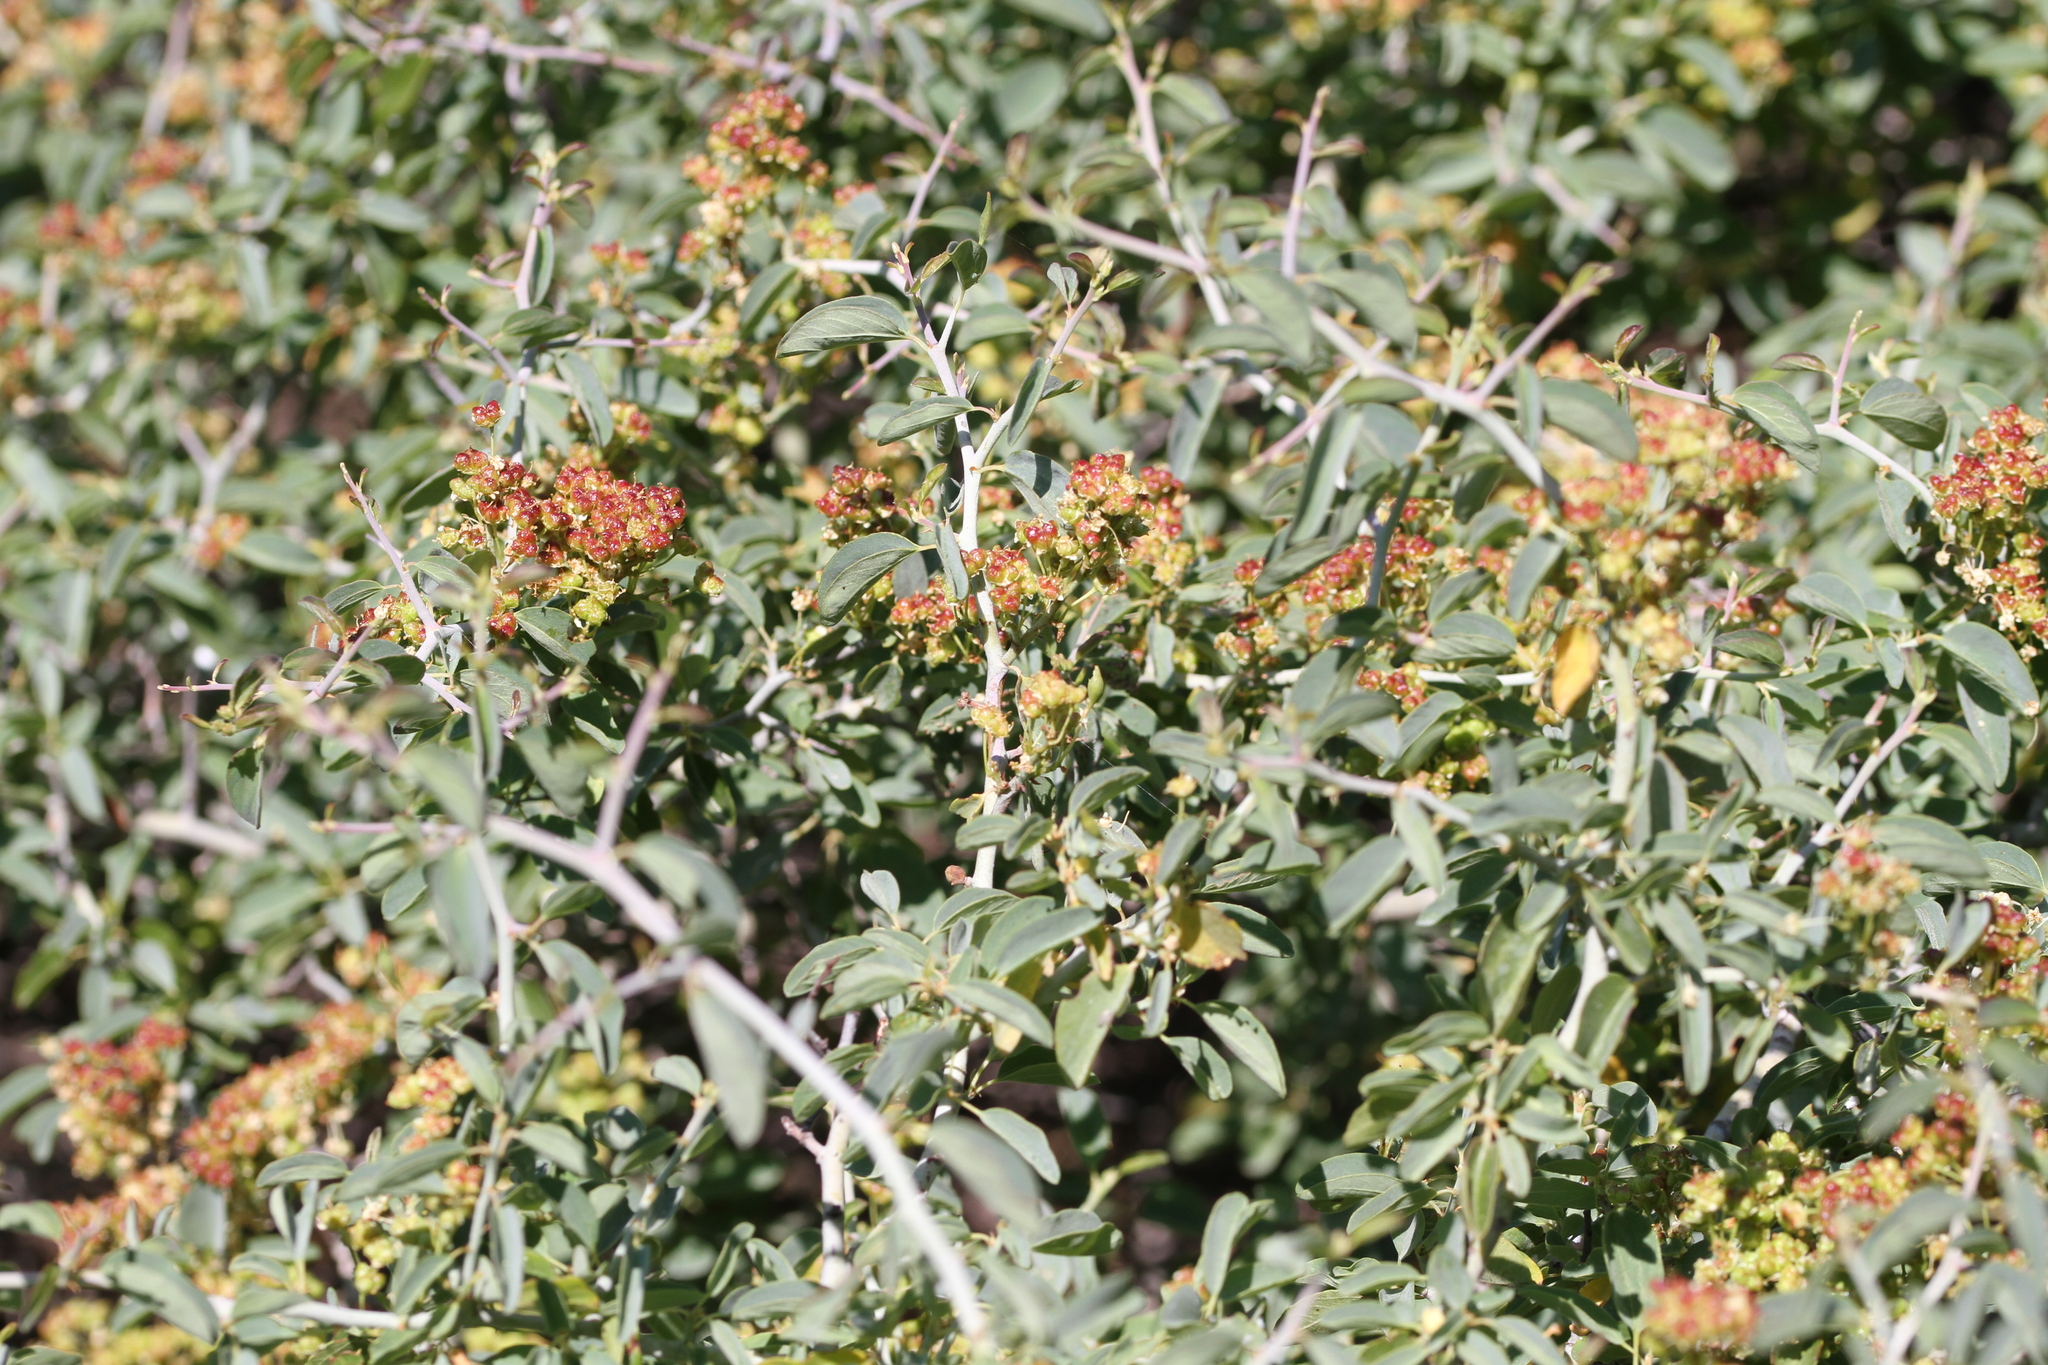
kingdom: Plantae
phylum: Tracheophyta
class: Magnoliopsida
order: Rosales
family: Rhamnaceae
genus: Ceanothus
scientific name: Ceanothus cordulatus
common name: Mountain whitethorn
